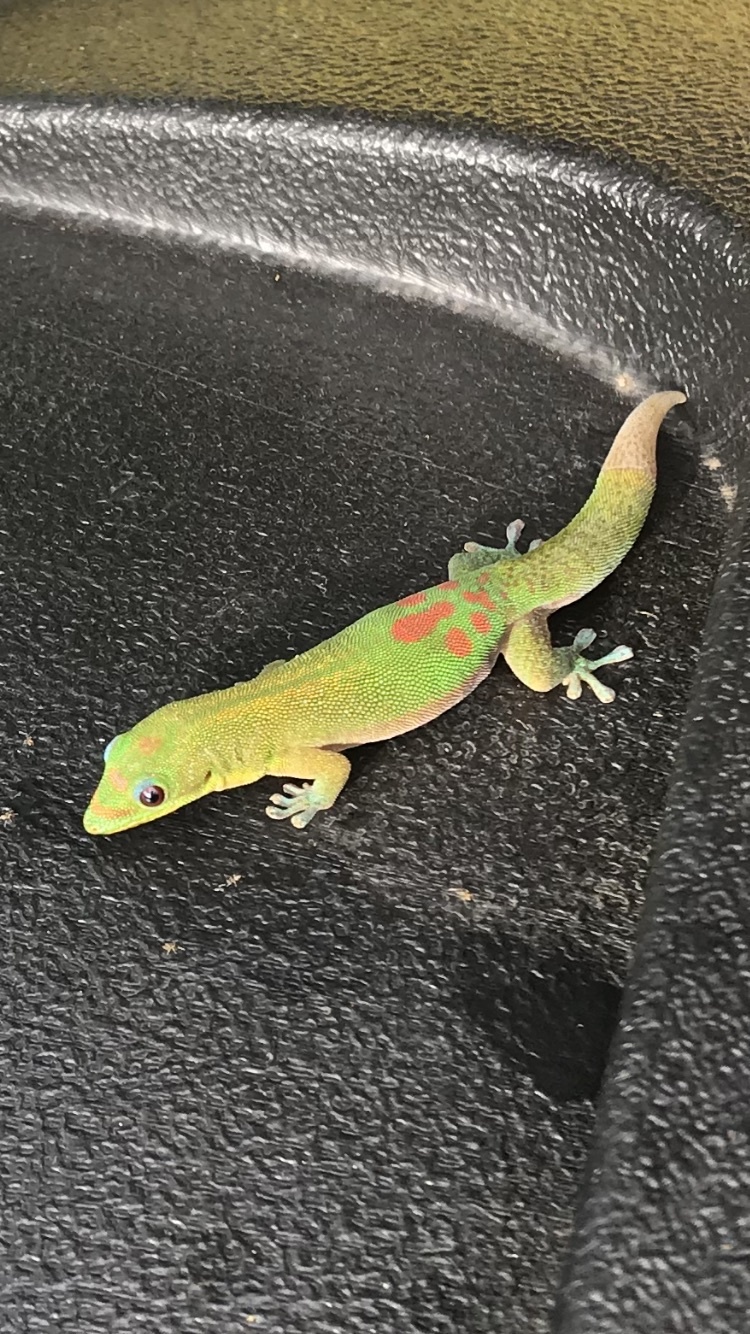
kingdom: Animalia
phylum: Chordata
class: Squamata
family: Gekkonidae
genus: Phelsuma
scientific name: Phelsuma laticauda
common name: Gold dust day gecko
